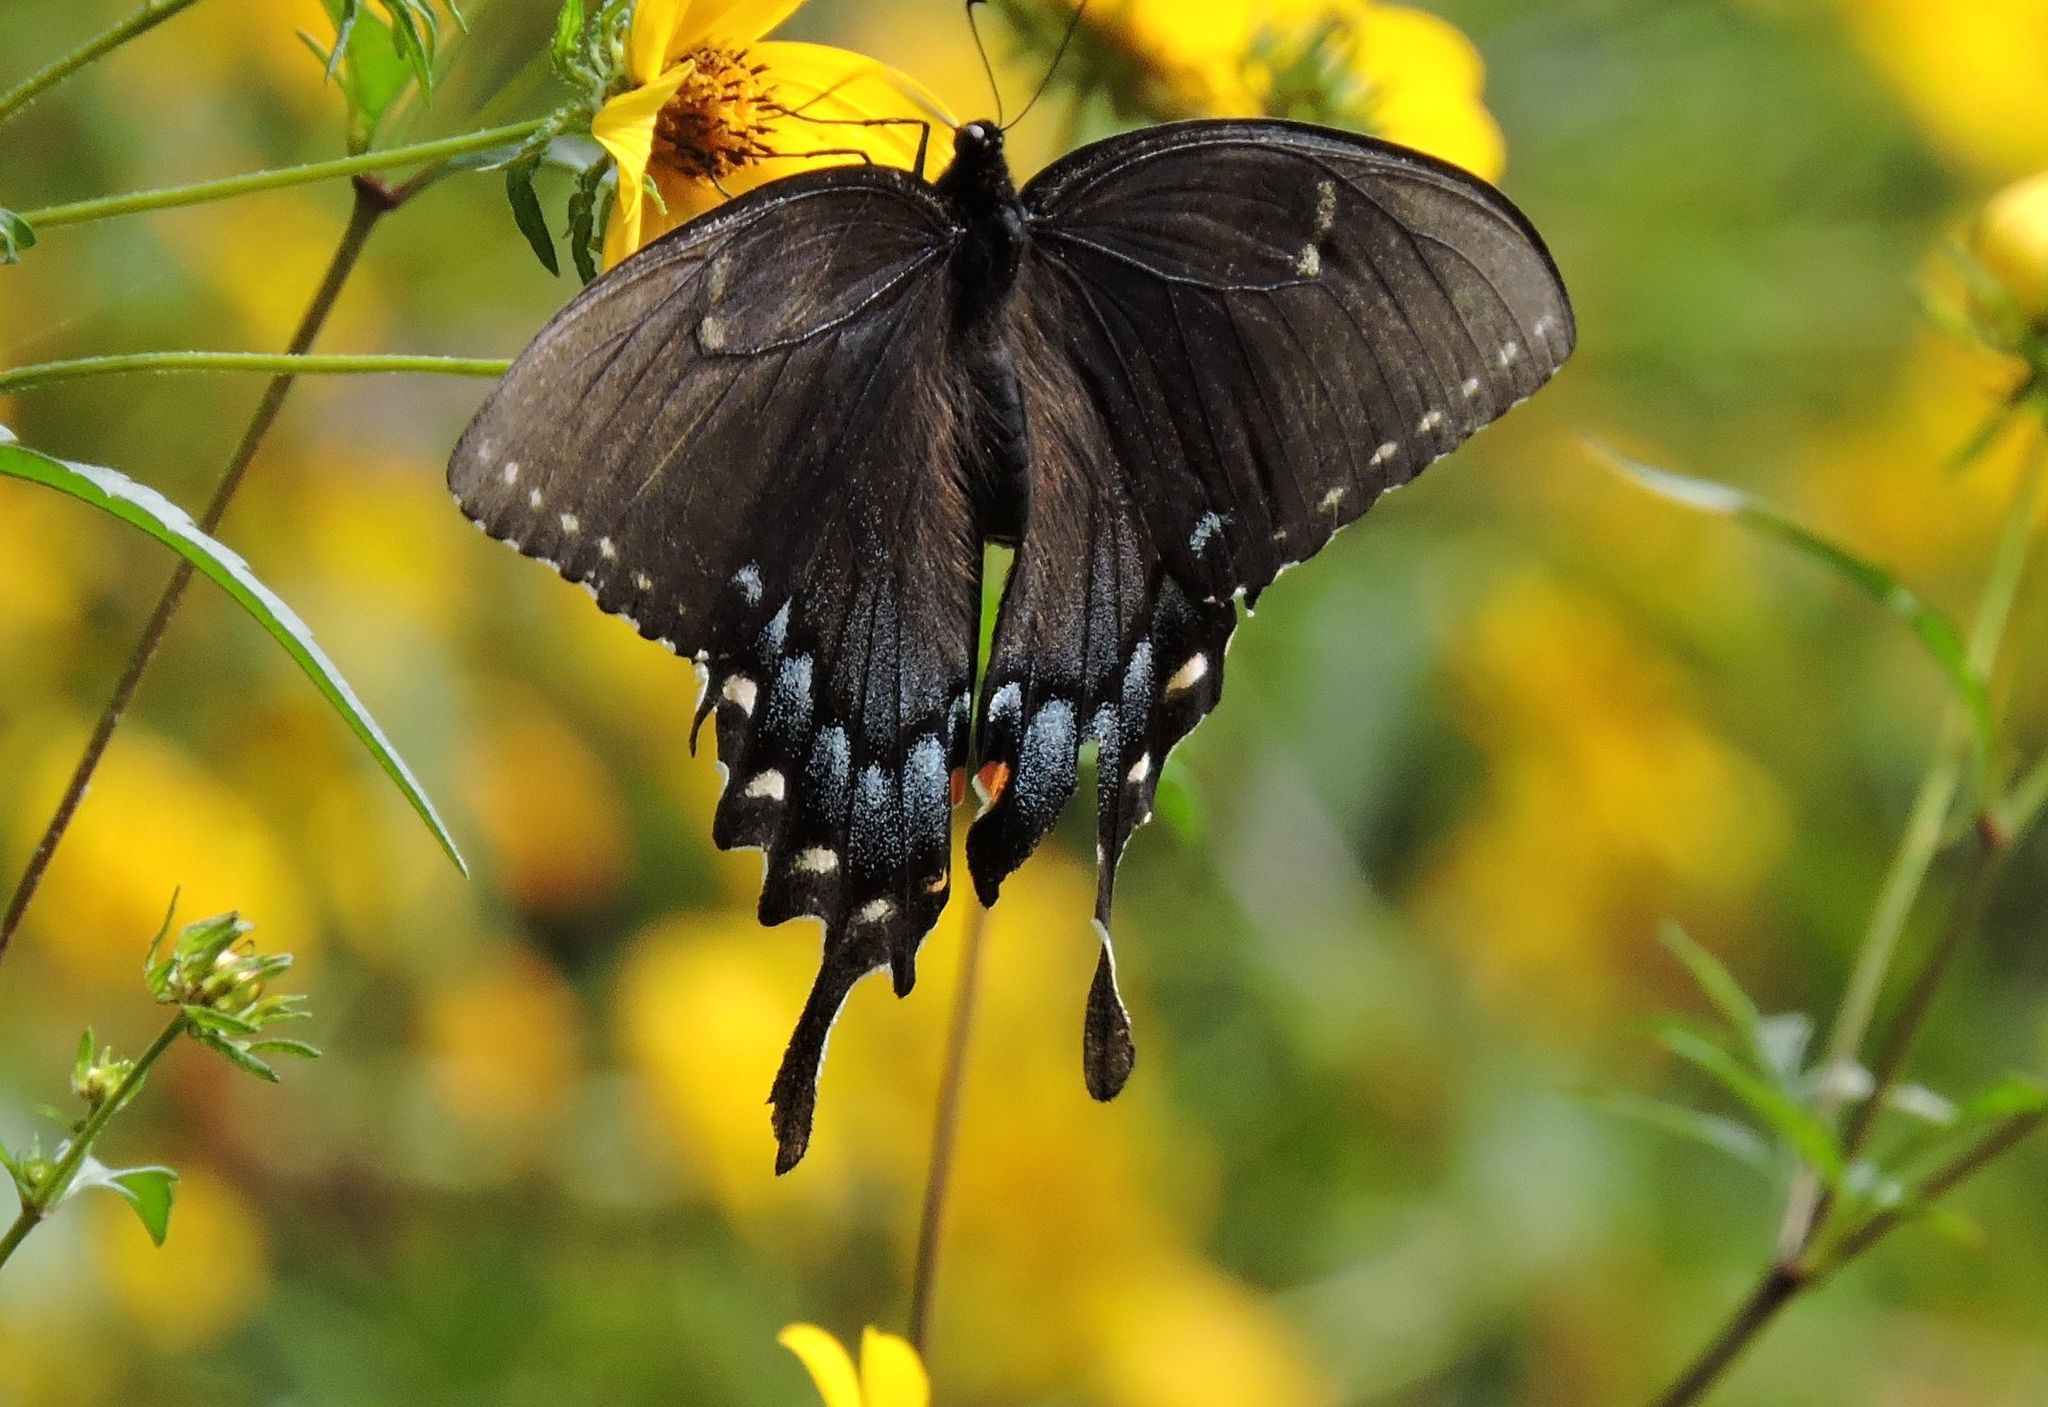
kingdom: Animalia
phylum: Arthropoda
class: Insecta
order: Lepidoptera
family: Papilionidae
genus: Papilio
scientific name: Papilio glaucus
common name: Tiger swallowtail
